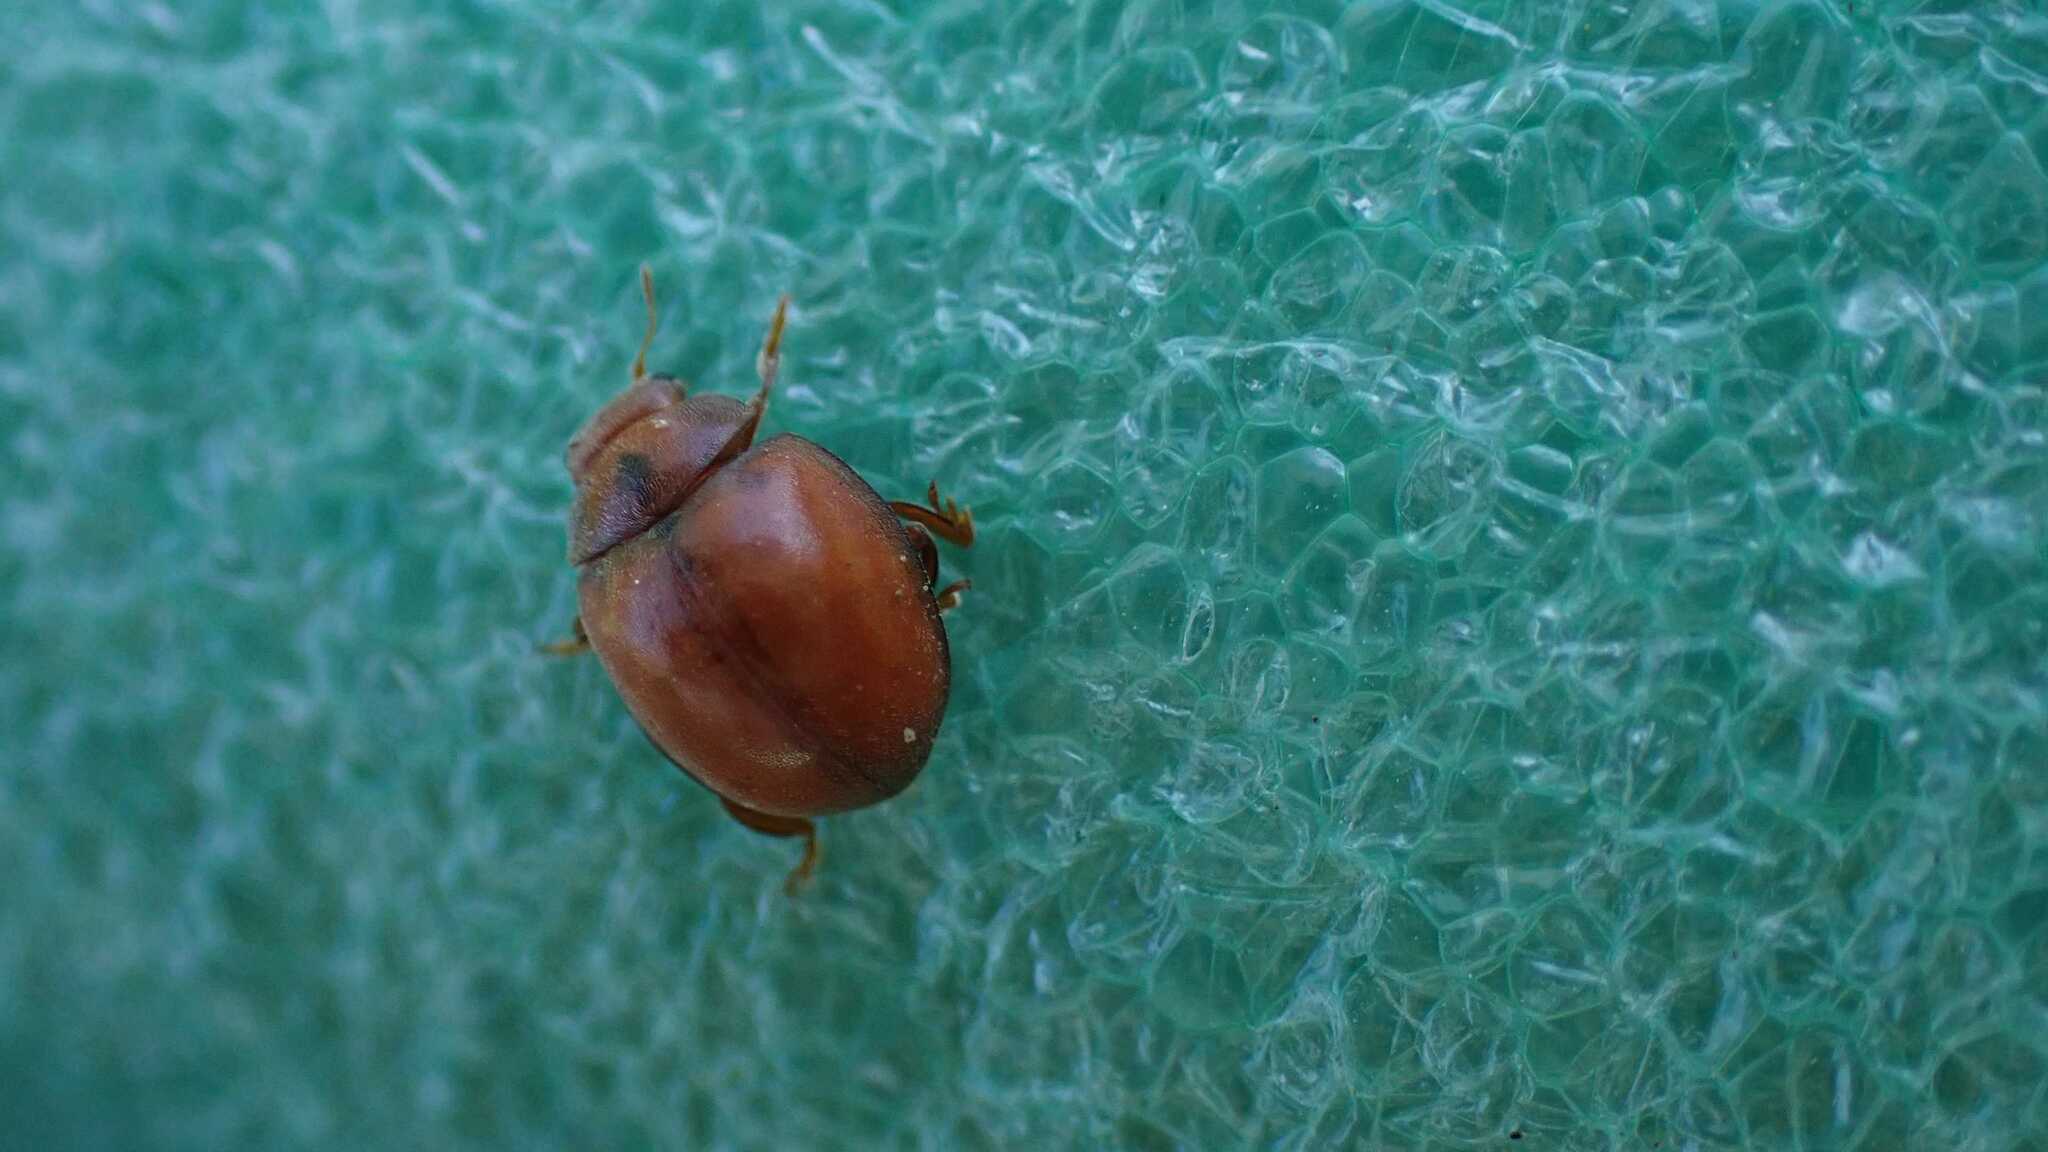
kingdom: Animalia
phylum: Arthropoda
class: Insecta
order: Coleoptera
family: Coccinellidae
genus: Subcoccinella
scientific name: Subcoccinella vigintiquatuorpunctata
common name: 24-spot ladybird
